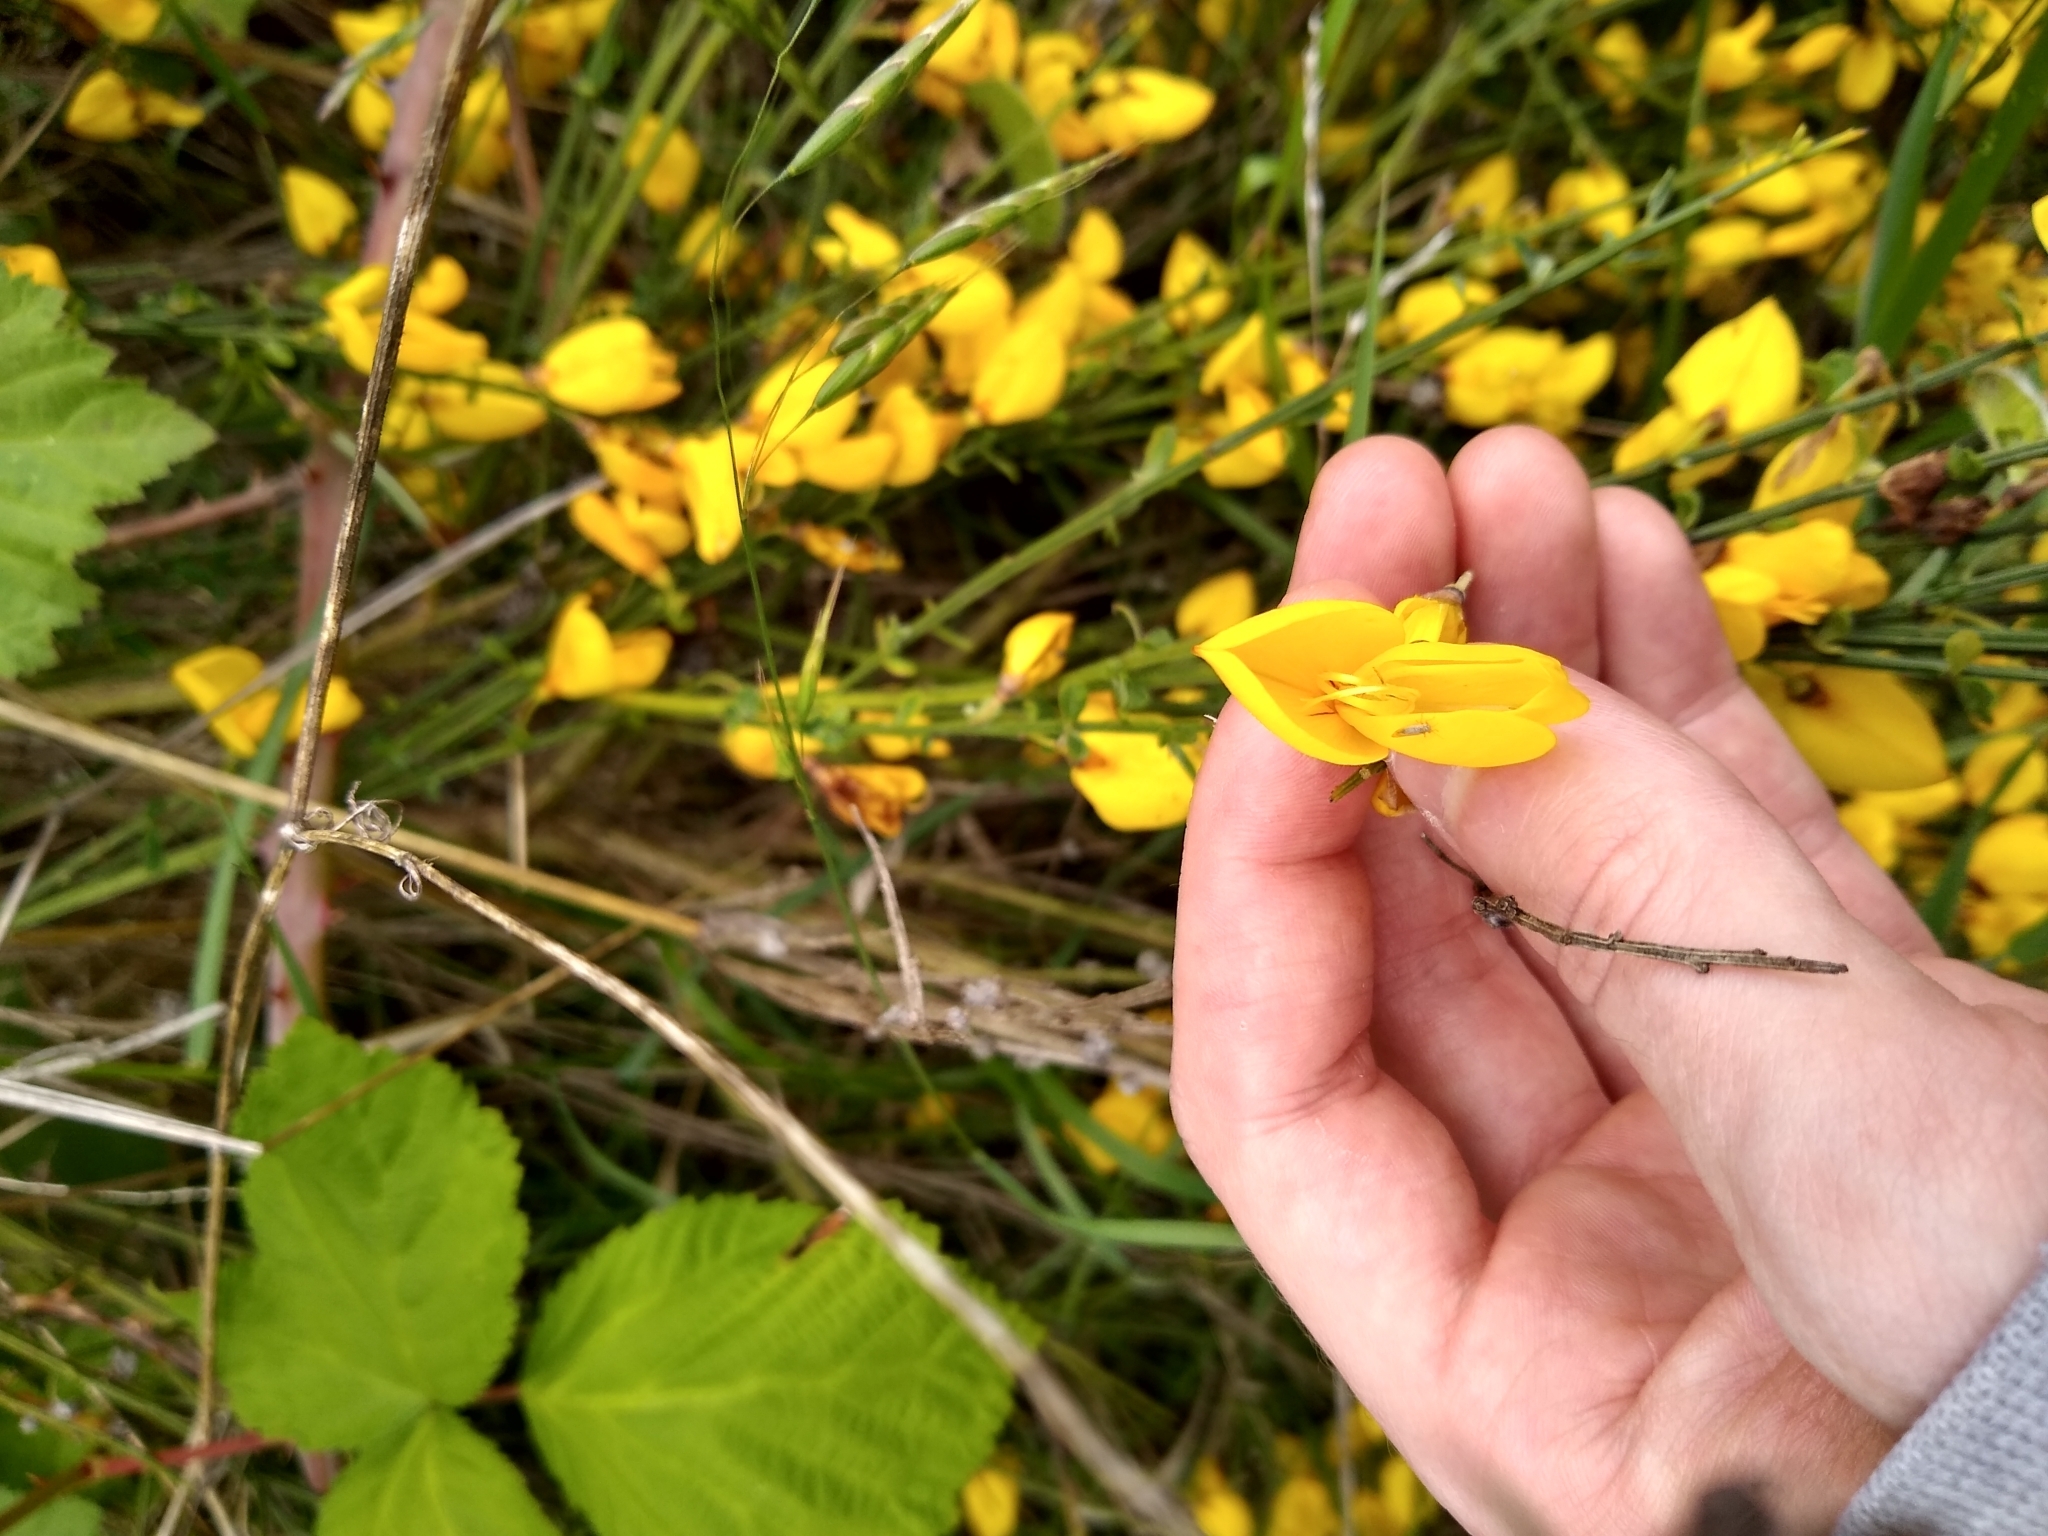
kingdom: Plantae
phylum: Tracheophyta
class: Magnoliopsida
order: Fabales
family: Fabaceae
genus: Cytisus
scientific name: Cytisus scoparius
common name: Scotch broom
